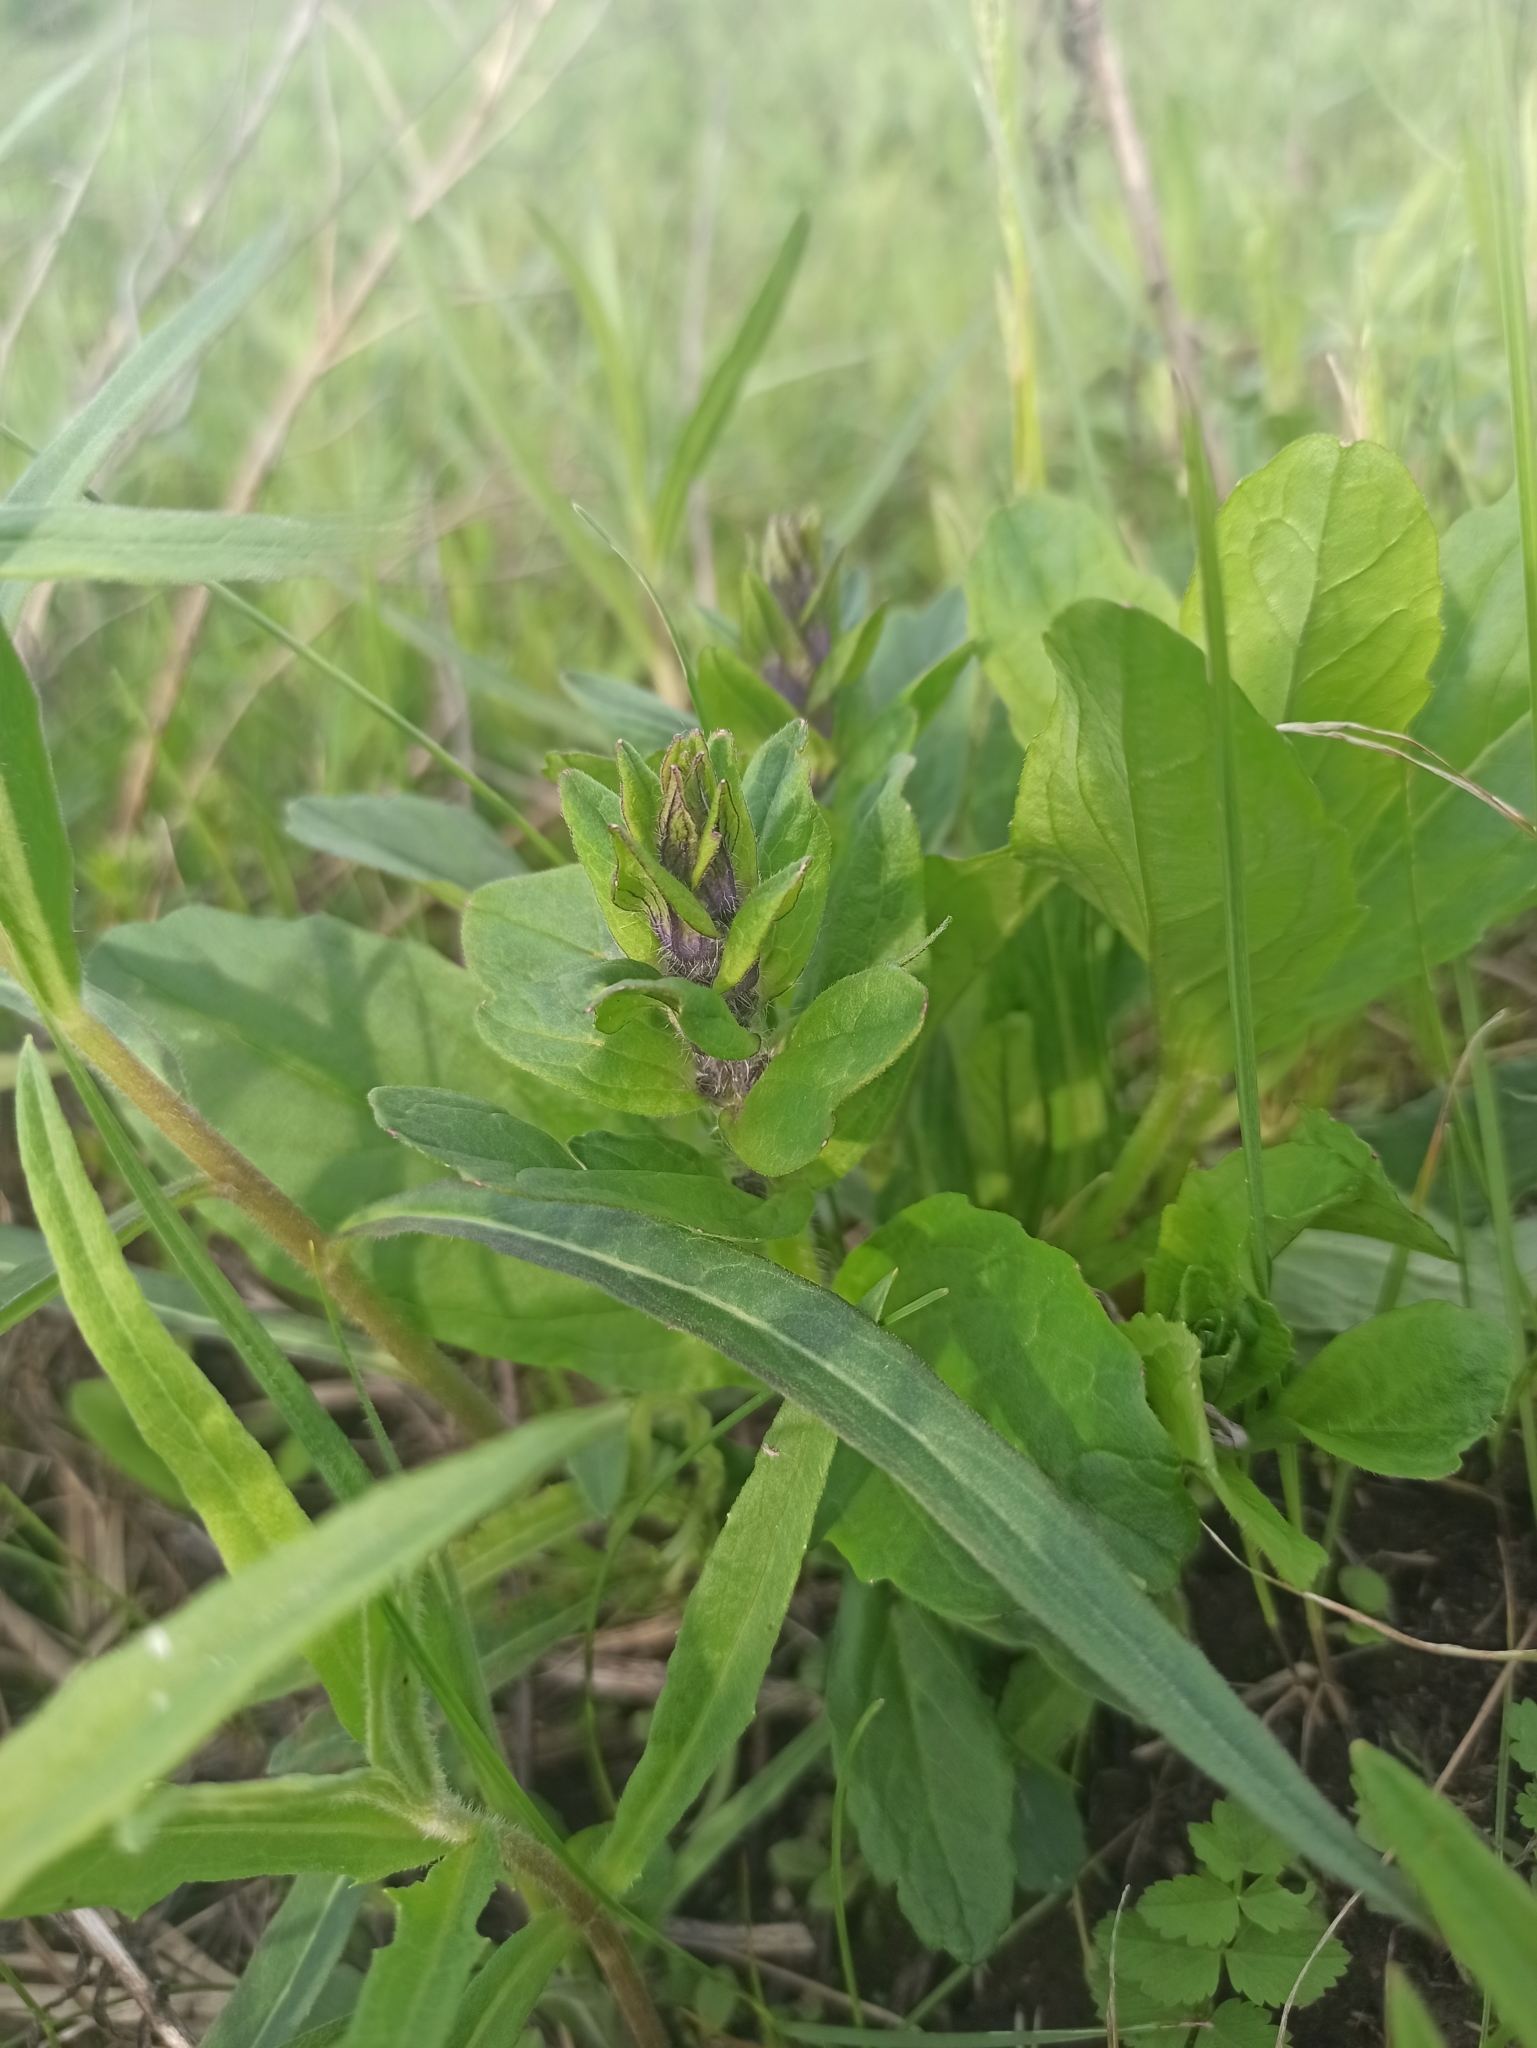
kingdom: Plantae
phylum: Tracheophyta
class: Magnoliopsida
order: Lamiales
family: Lamiaceae
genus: Ajuga
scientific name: Ajuga reptans
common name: Bugle
